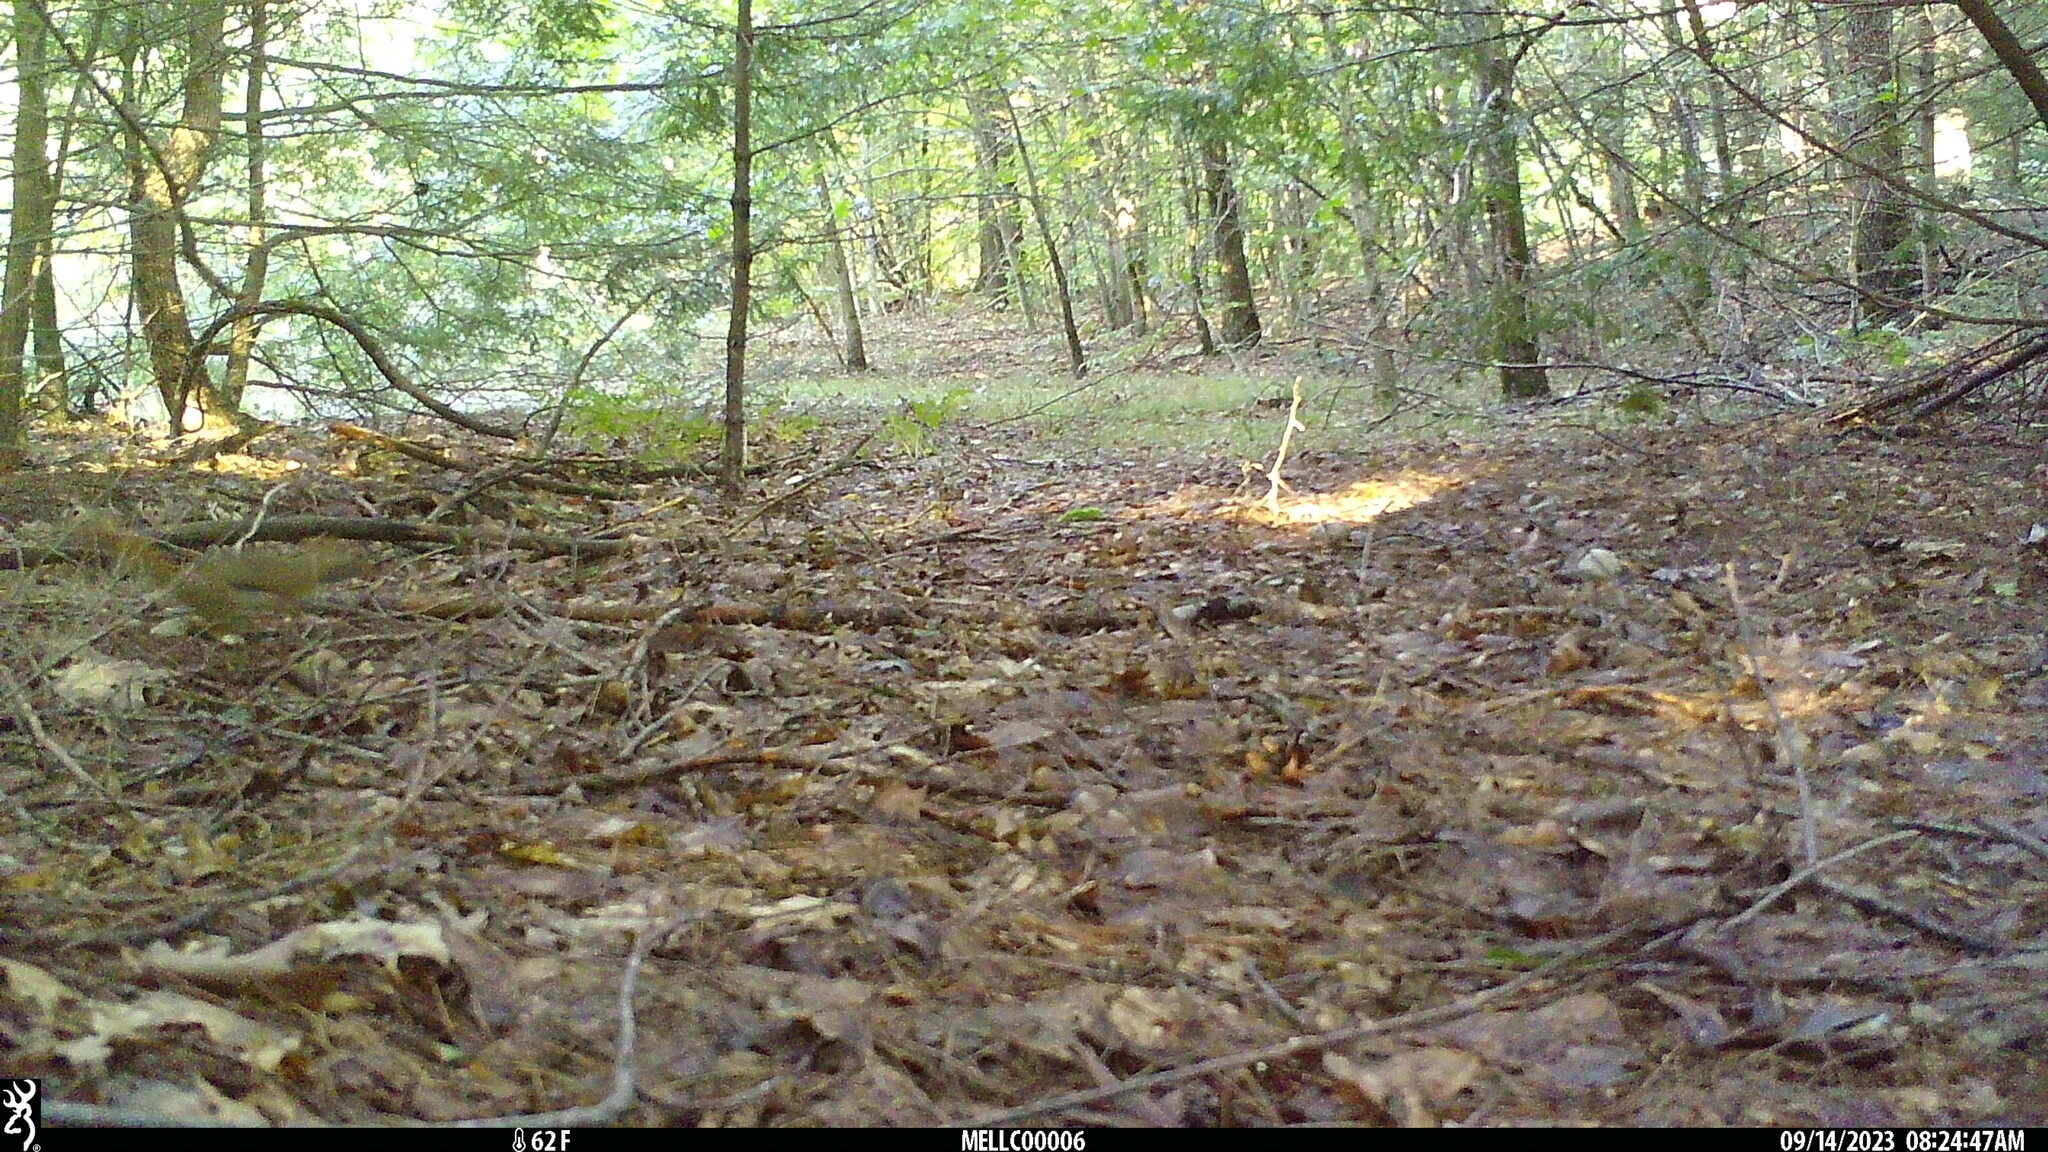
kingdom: Animalia
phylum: Chordata
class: Mammalia
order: Rodentia
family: Sciuridae
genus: Tamiasciurus
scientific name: Tamiasciurus hudsonicus
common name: Red squirrel
